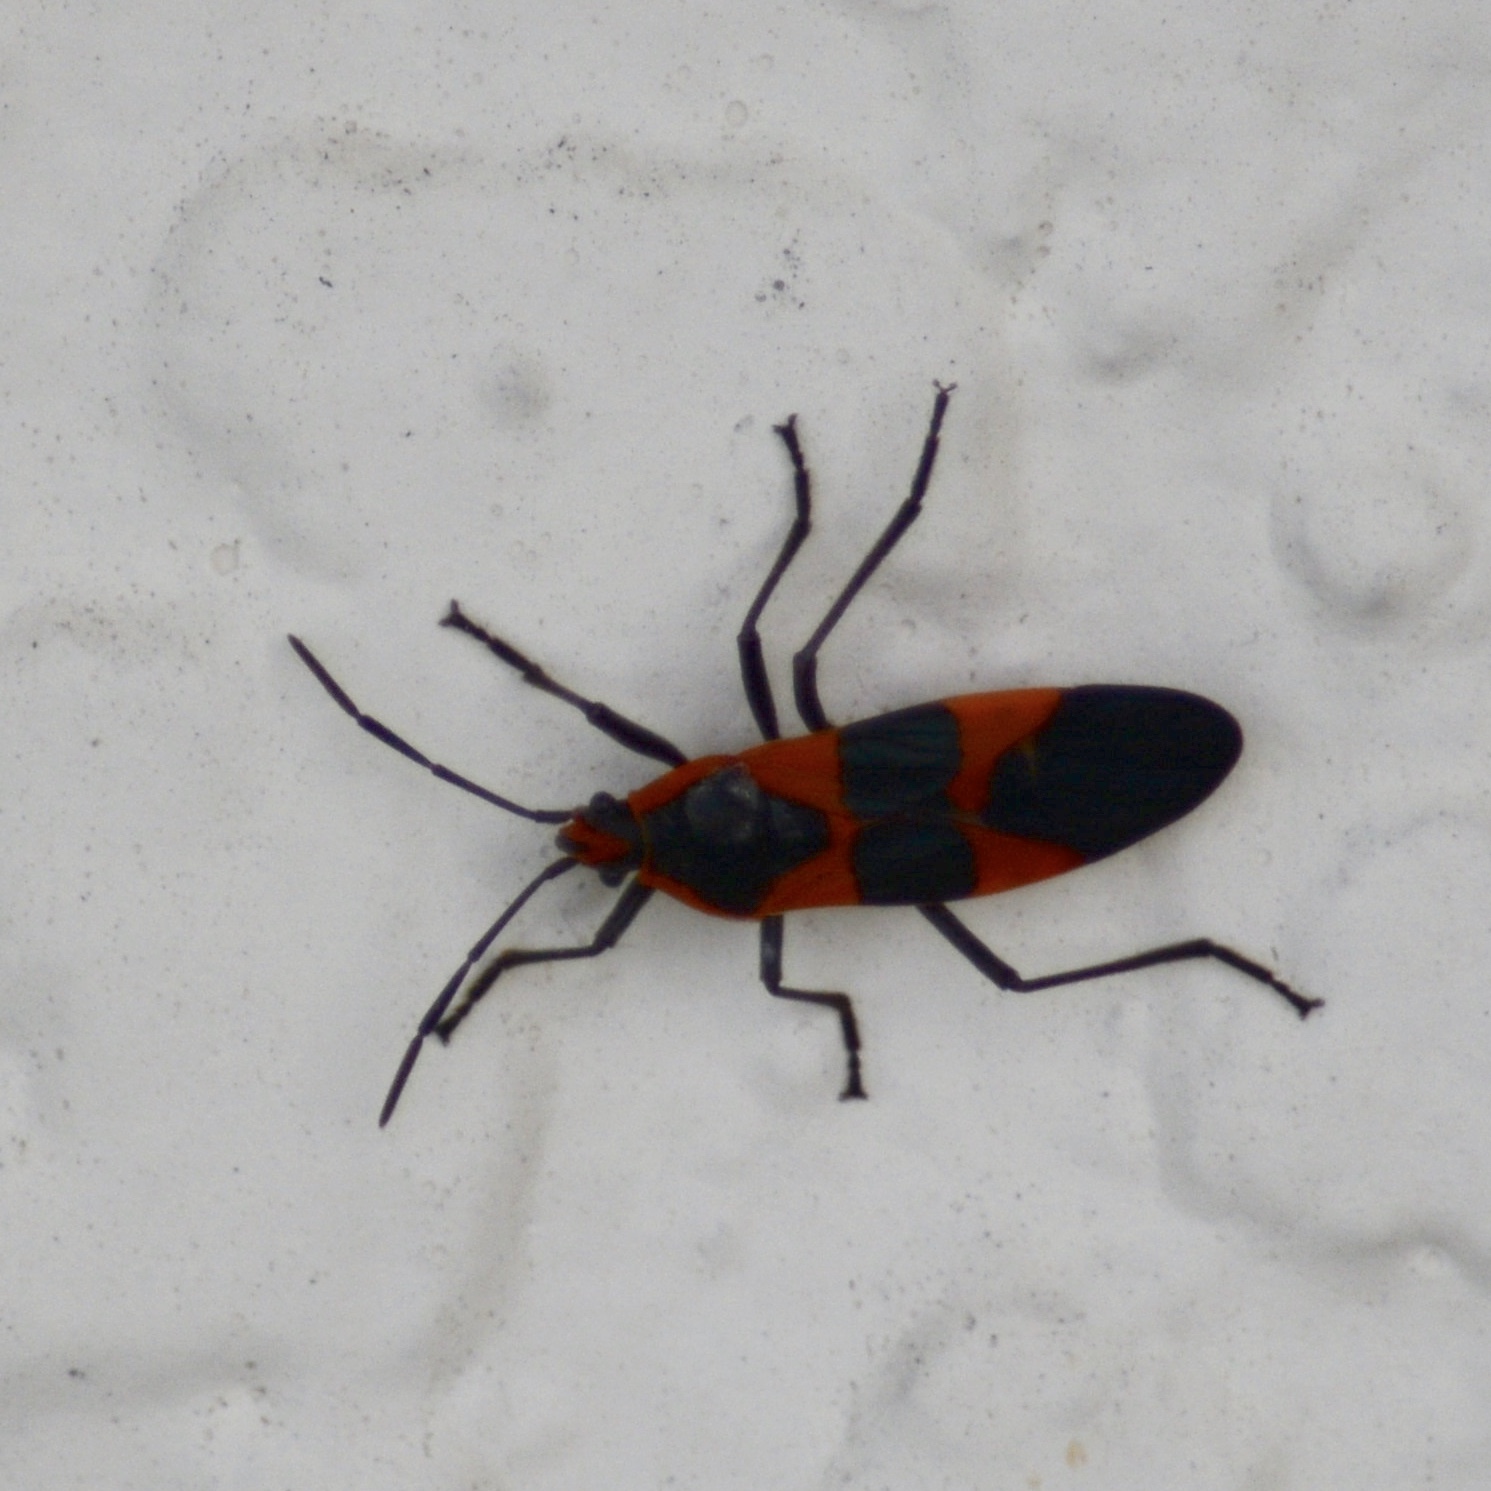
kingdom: Animalia
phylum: Arthropoda
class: Insecta
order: Hemiptera
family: Lygaeidae
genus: Oncopeltus
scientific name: Oncopeltus fasciatus
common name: Large milkweed bug
